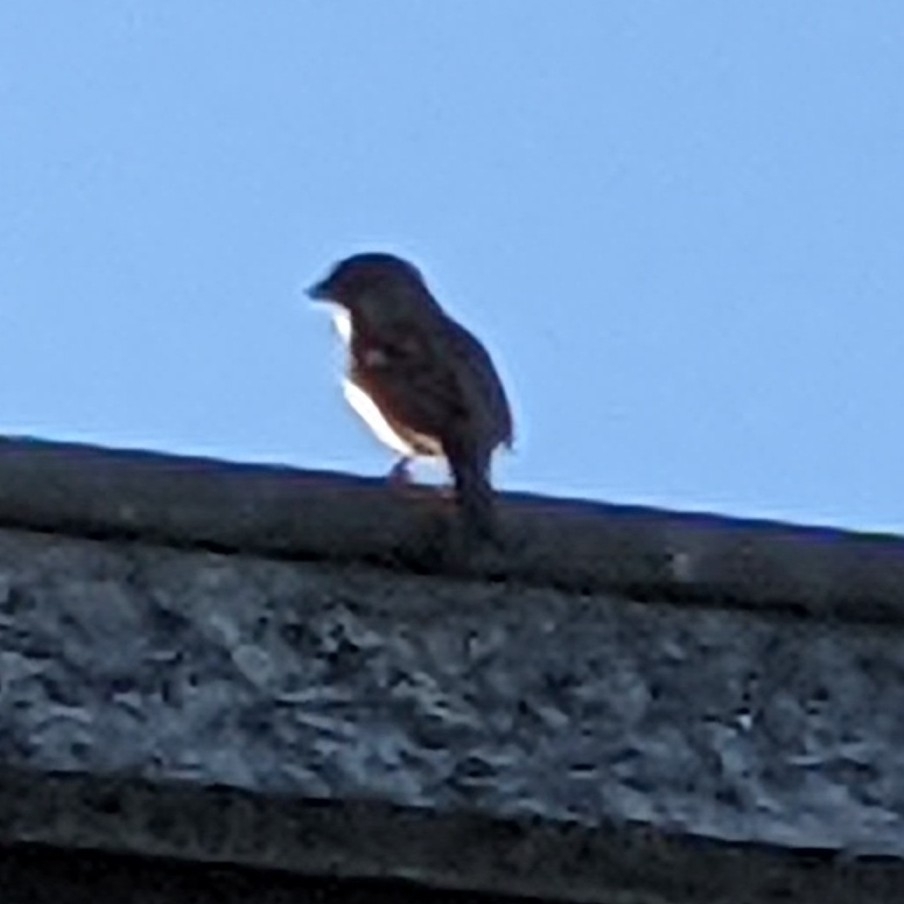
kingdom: Animalia
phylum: Chordata
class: Aves
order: Passeriformes
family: Passeridae
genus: Passer
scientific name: Passer domesticus
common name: House sparrow
